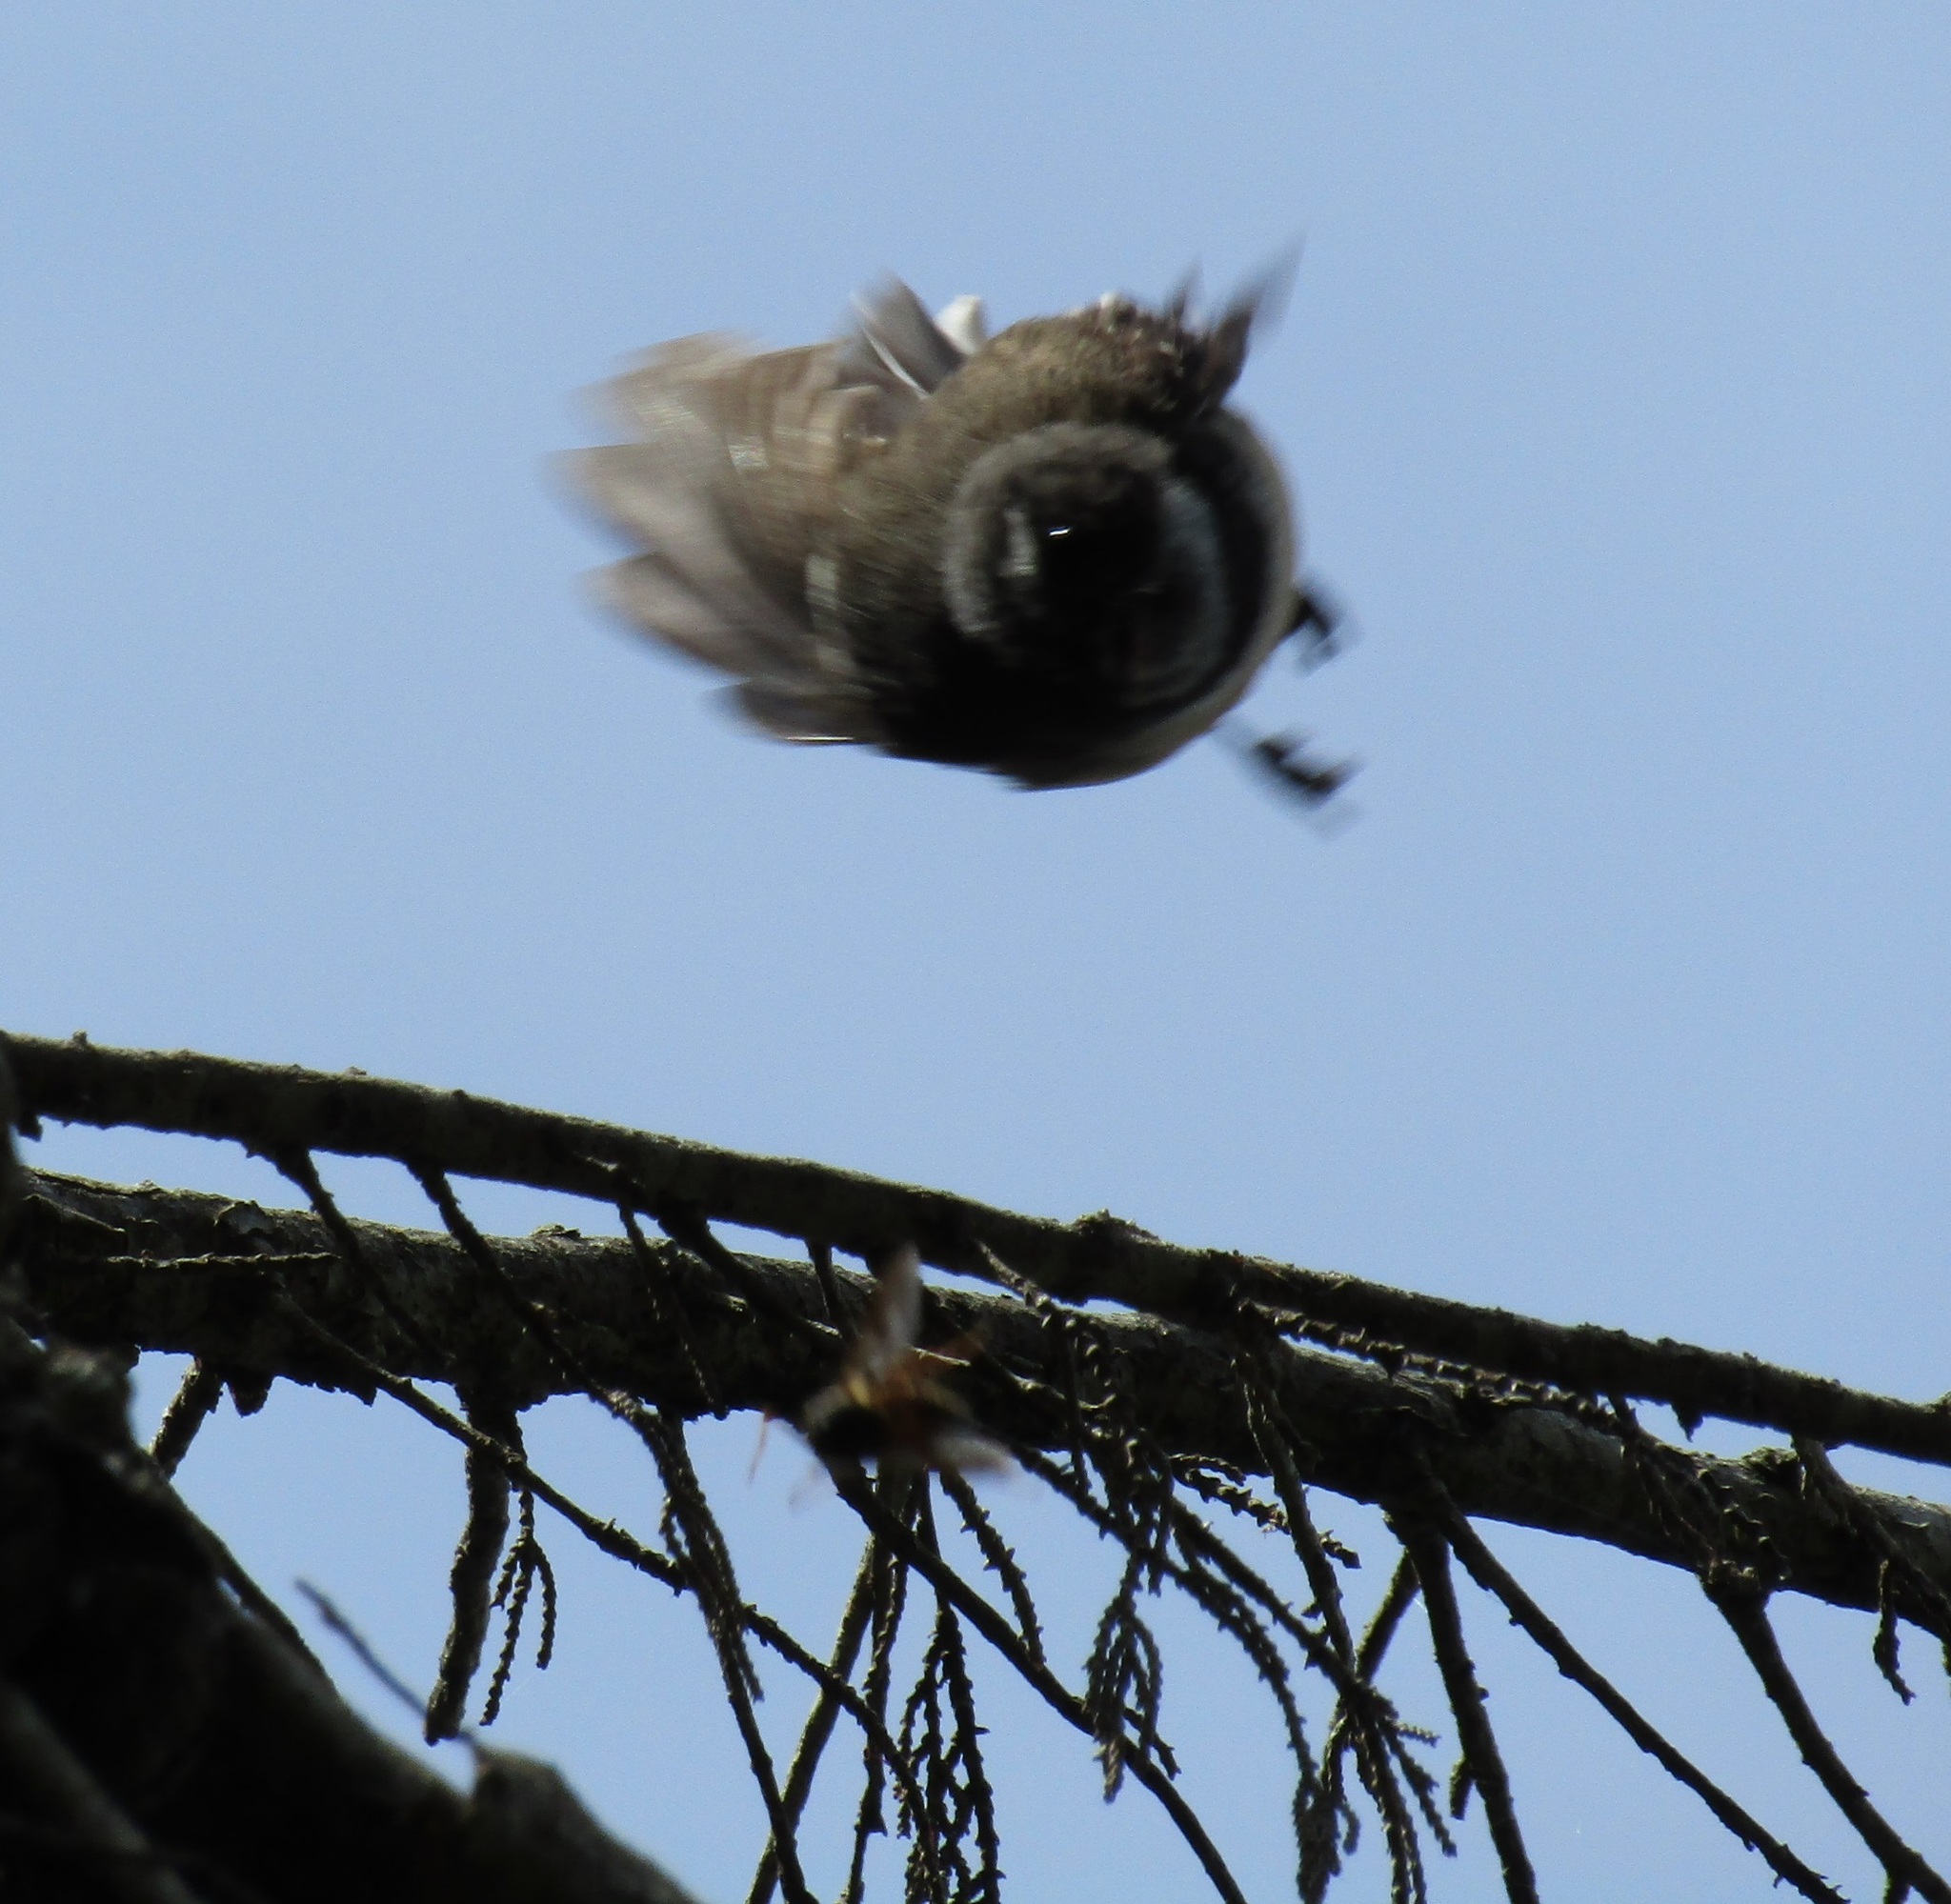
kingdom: Animalia
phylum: Chordata
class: Aves
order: Passeriformes
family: Rhipiduridae
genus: Rhipidura
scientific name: Rhipidura fuliginosa
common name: New zealand fantail
